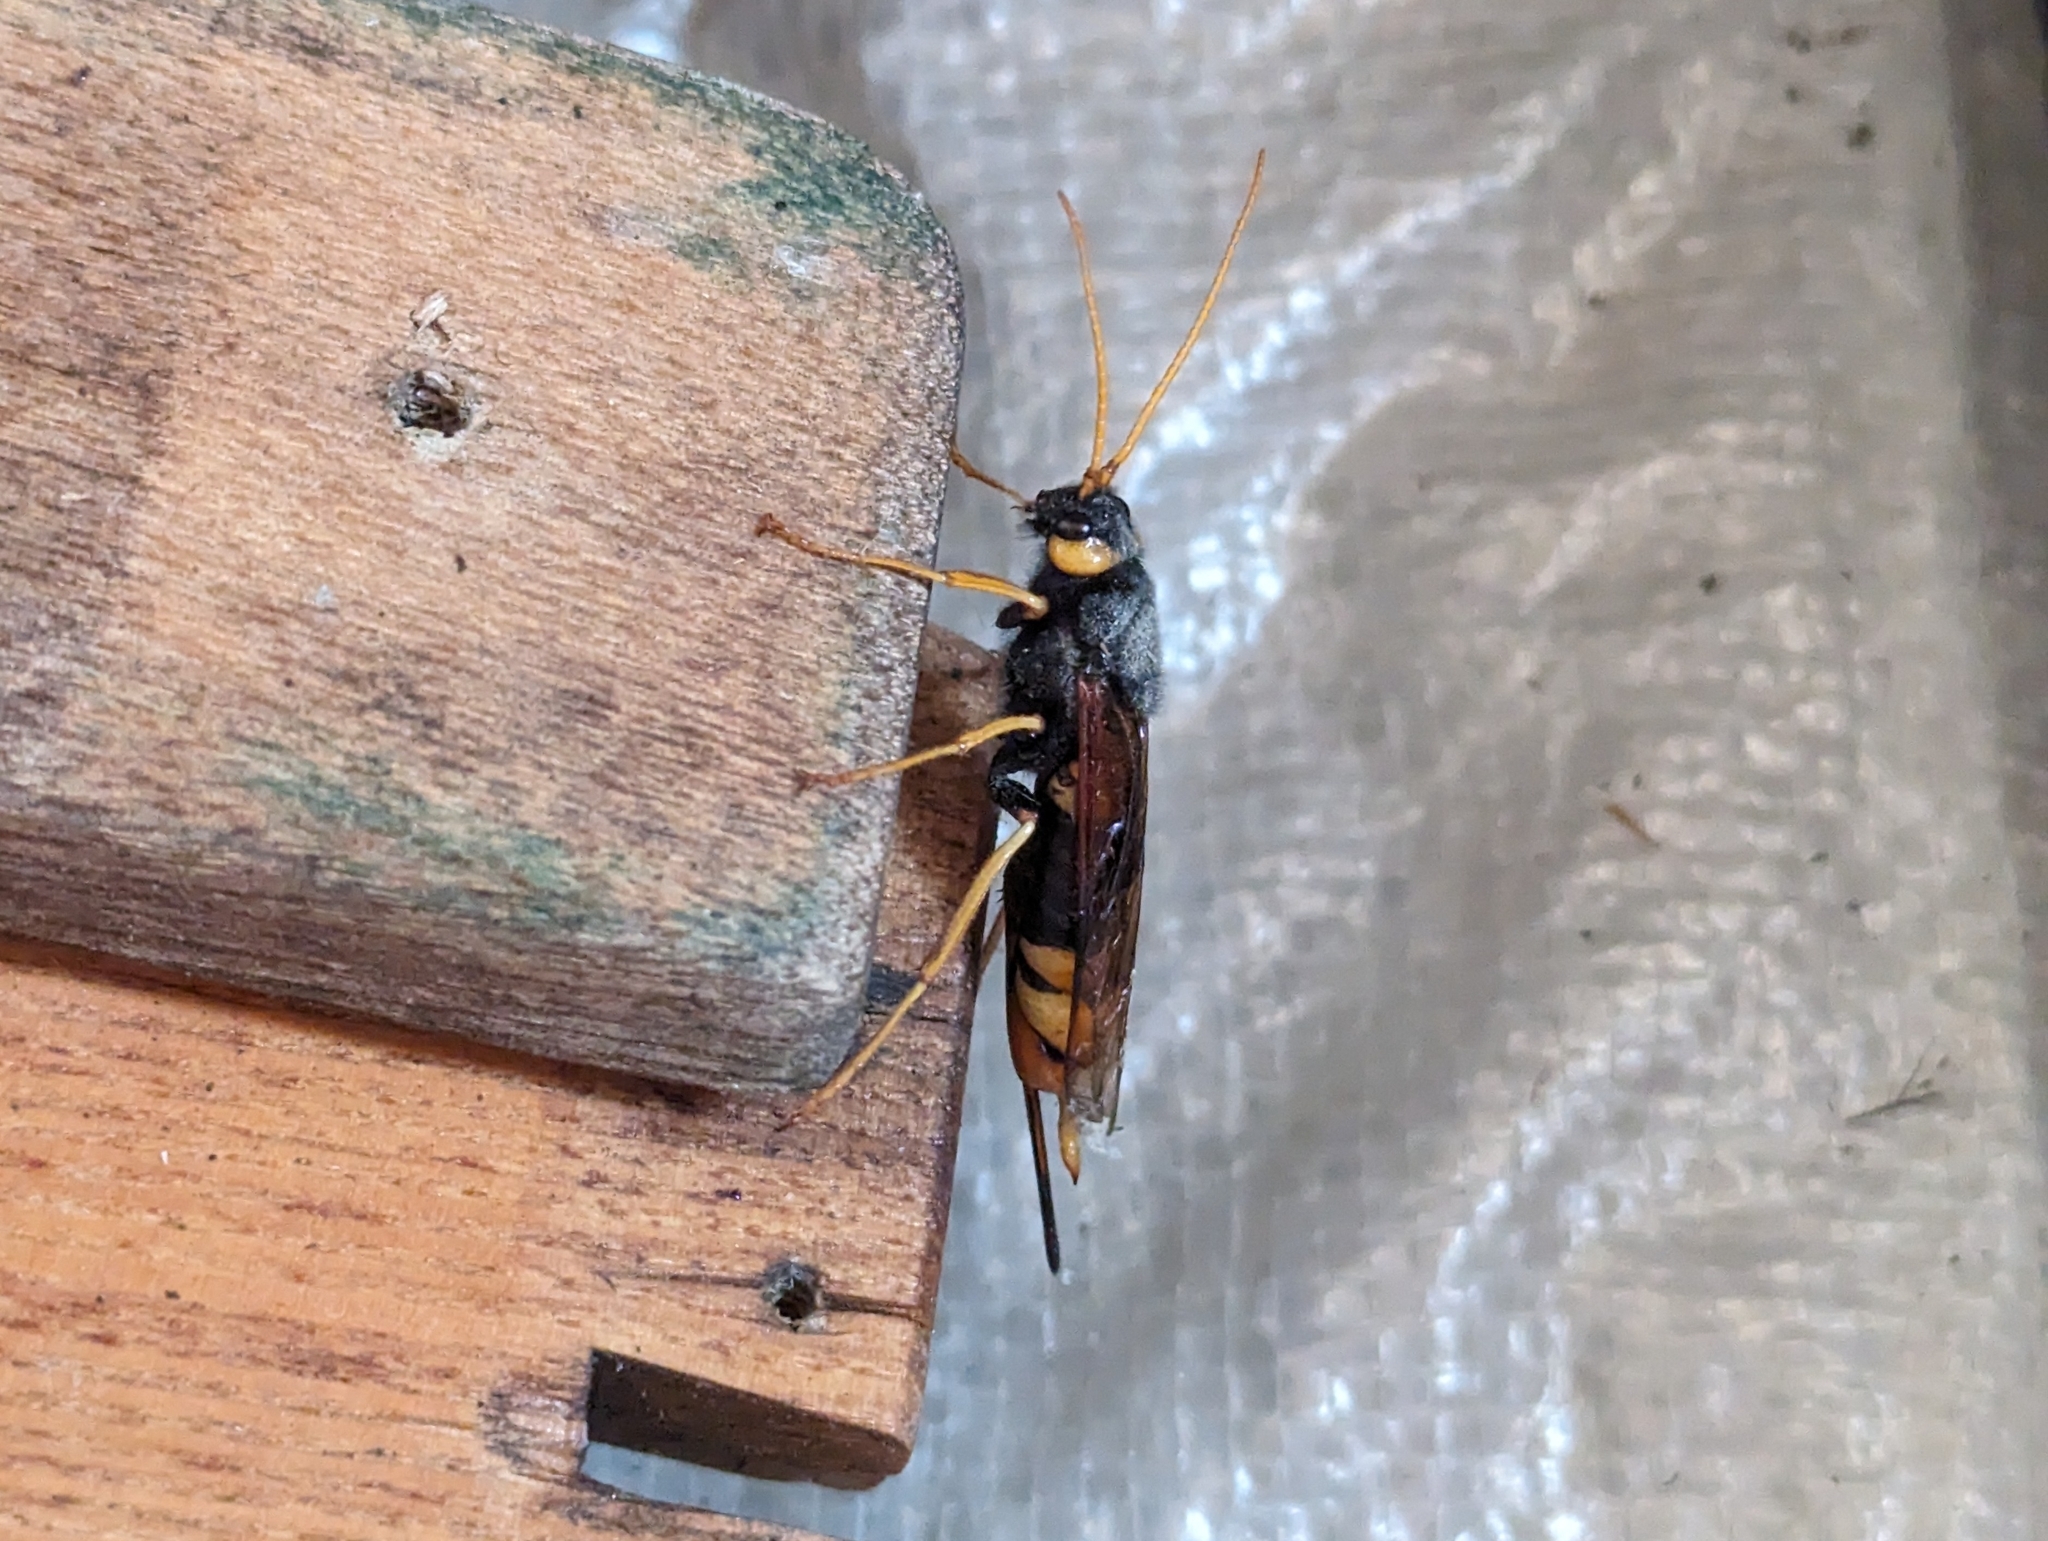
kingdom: Animalia
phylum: Arthropoda
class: Insecta
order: Hymenoptera
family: Siricidae
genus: Urocerus
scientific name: Urocerus gigas
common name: Giant woodwasp
